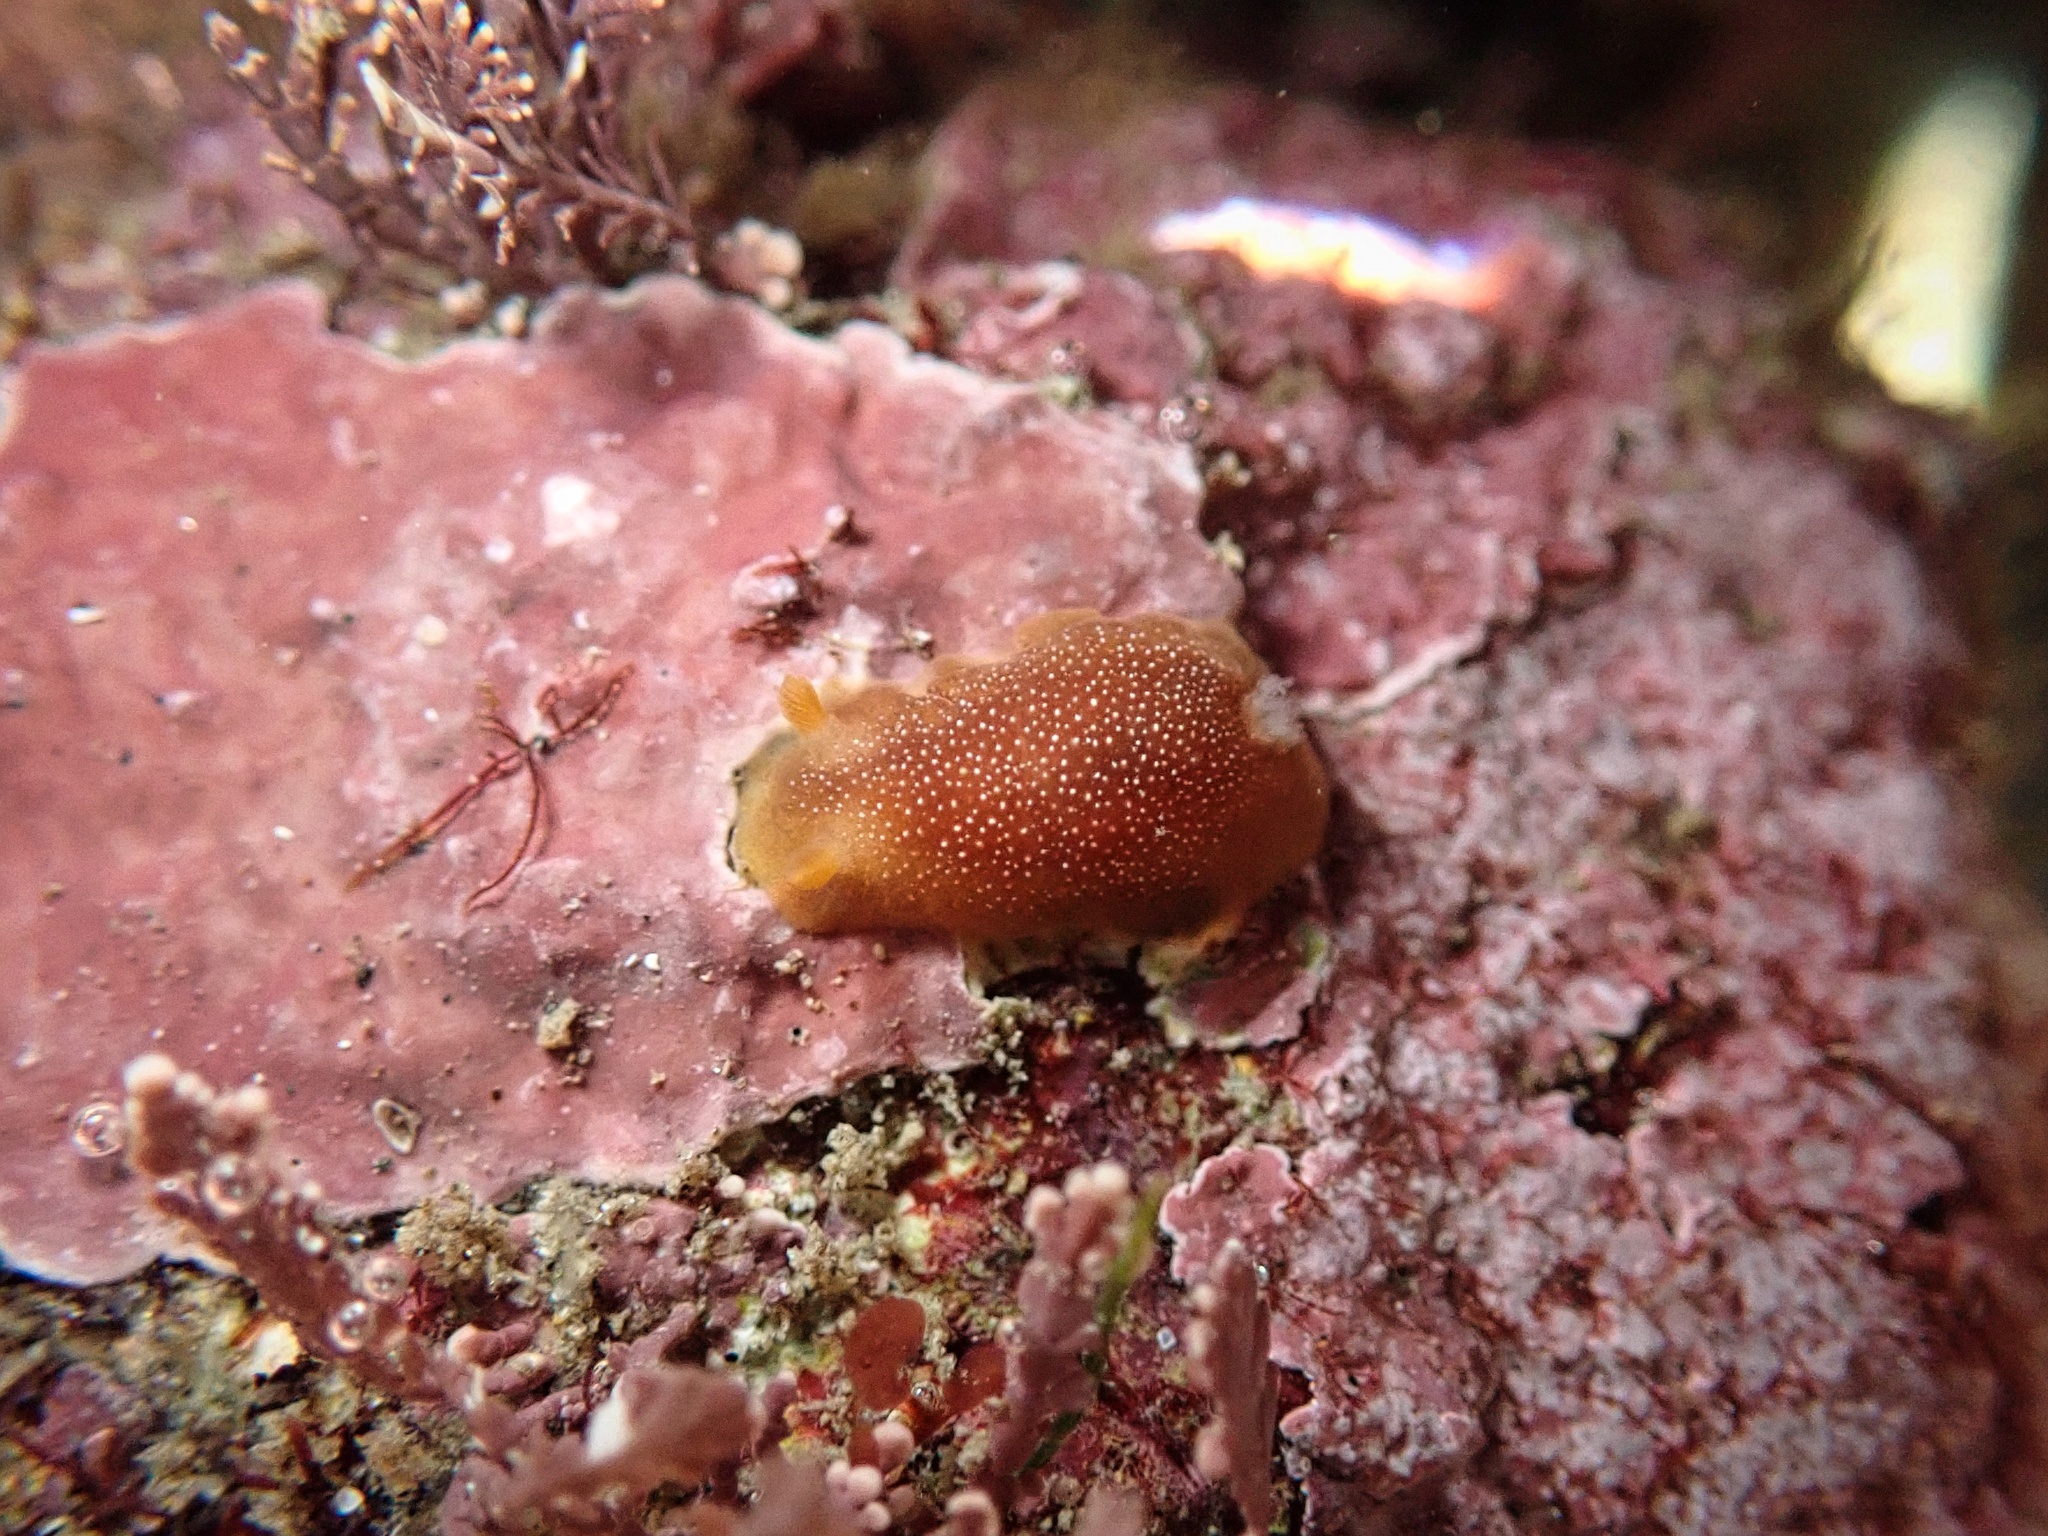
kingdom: Animalia
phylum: Mollusca
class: Gastropoda
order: Nudibranchia
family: Dendrodorididae
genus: Doriopsilla
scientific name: Doriopsilla albopunctata
